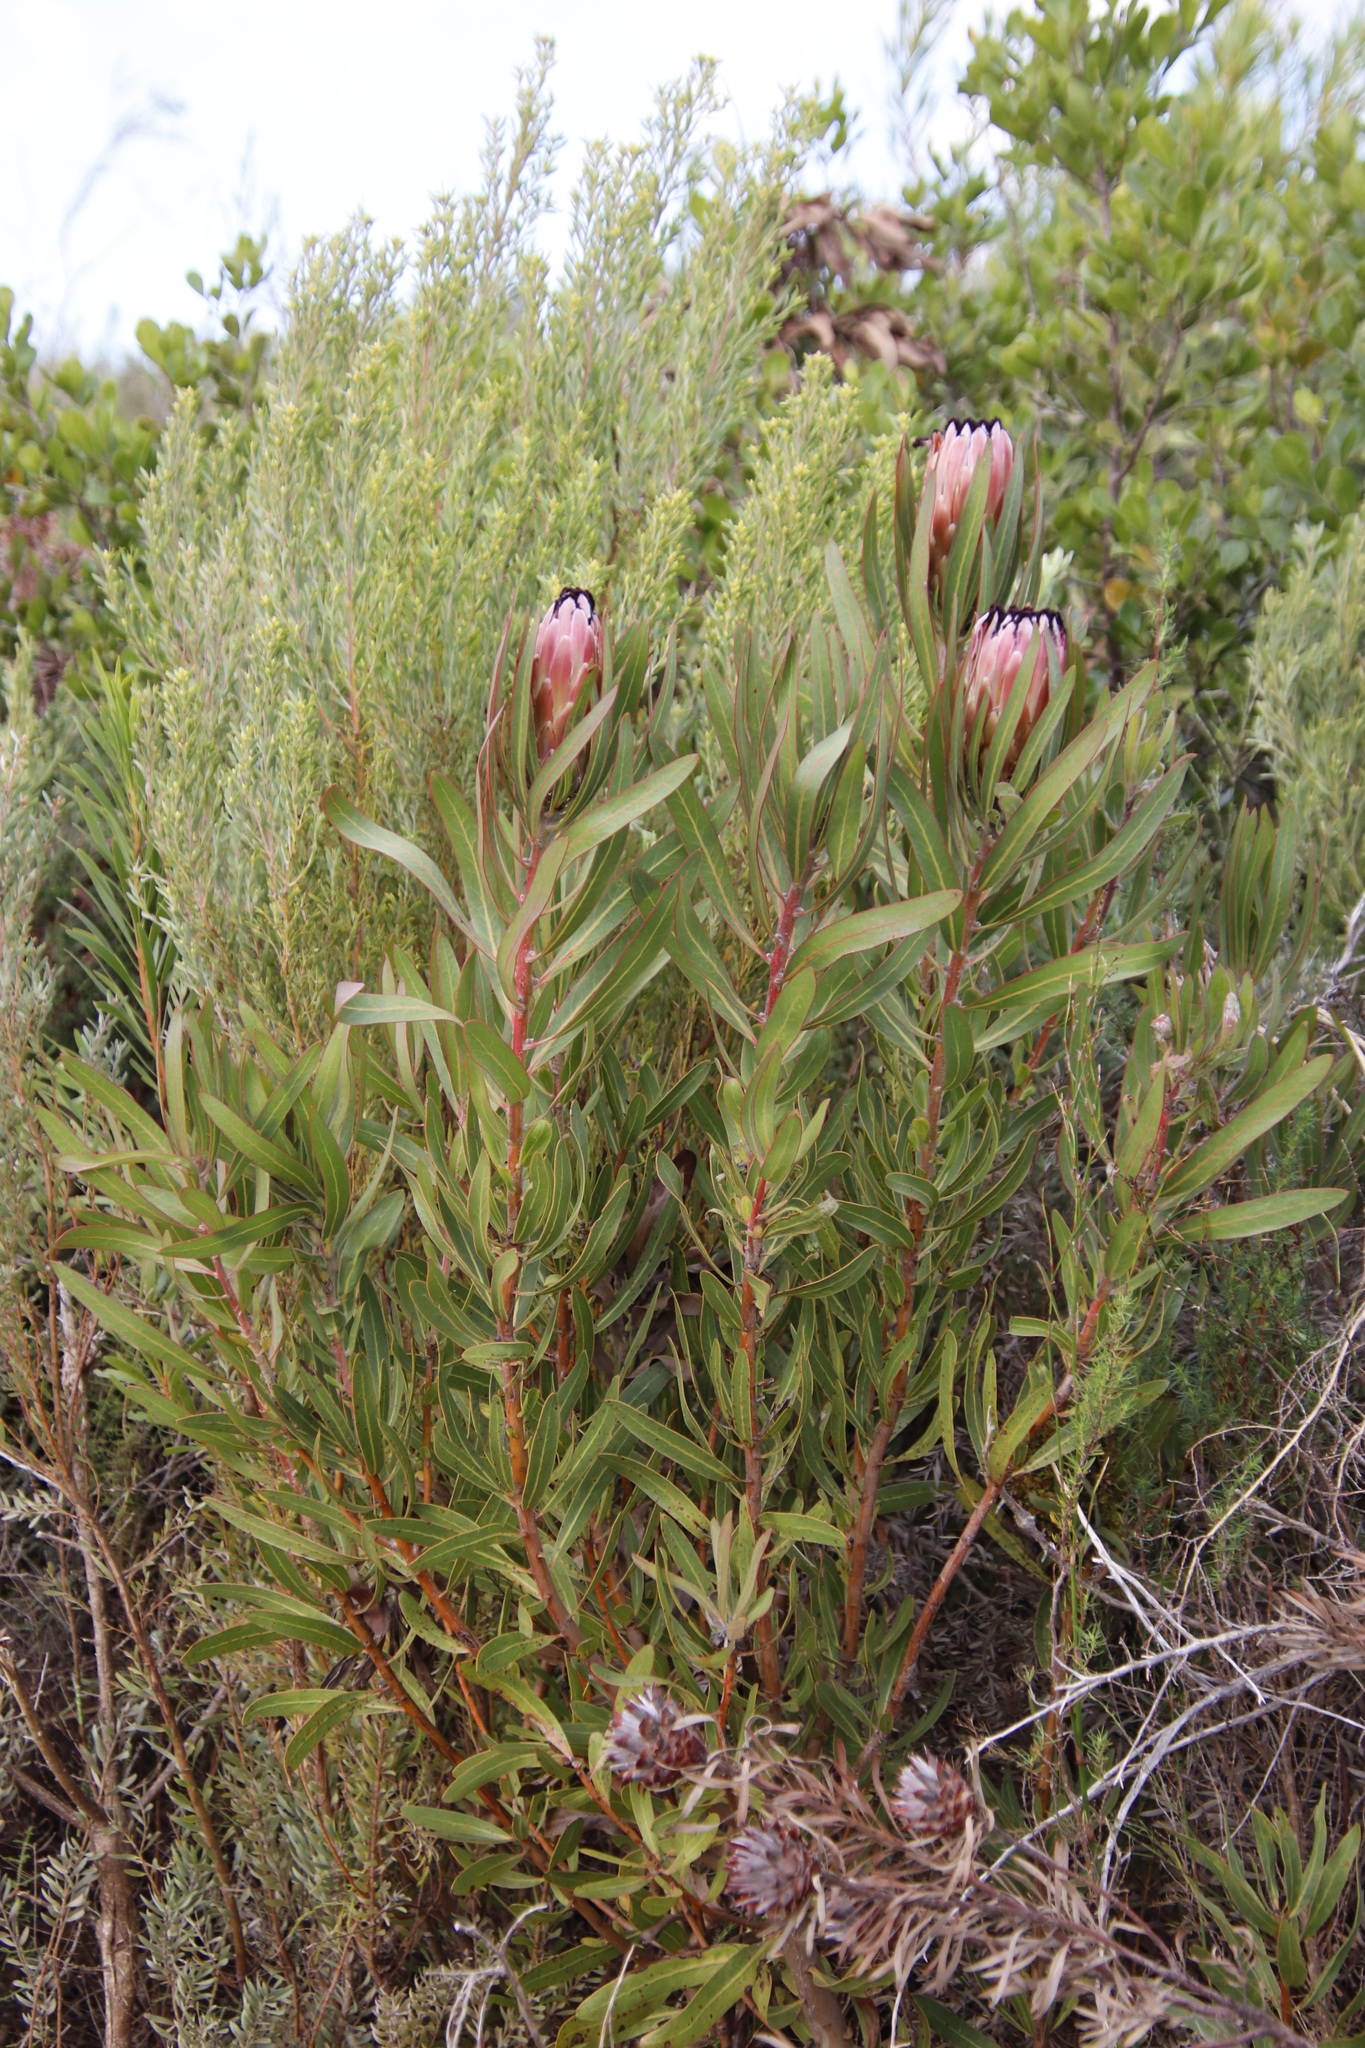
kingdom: Plantae
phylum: Tracheophyta
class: Magnoliopsida
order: Proteales
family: Proteaceae
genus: Protea
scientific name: Protea
